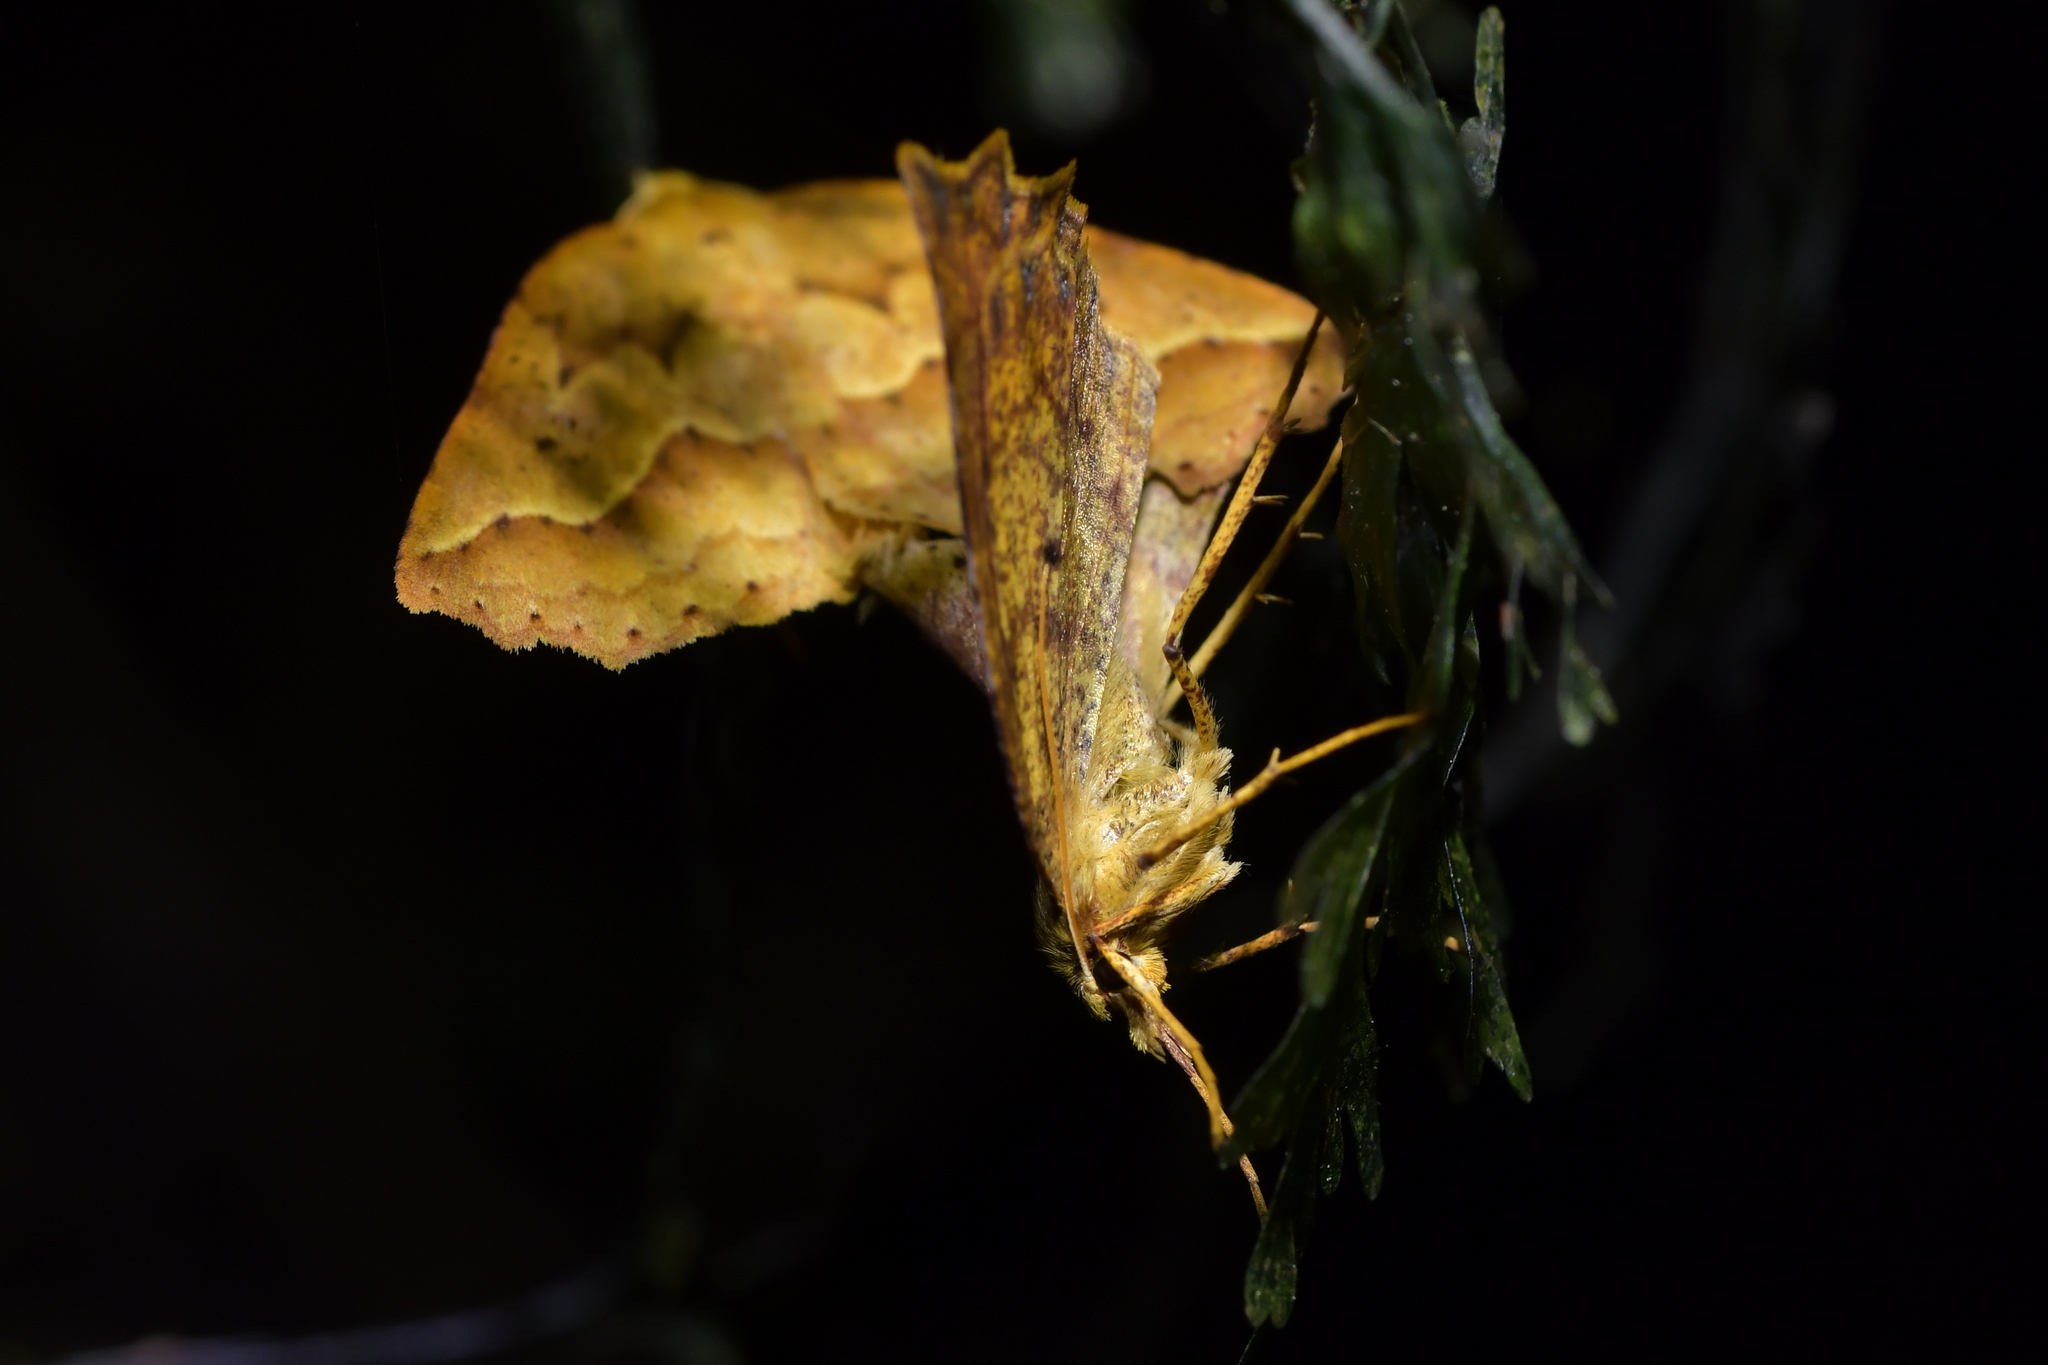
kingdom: Animalia
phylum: Arthropoda
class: Insecta
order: Lepidoptera
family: Geometridae
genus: Ischalis
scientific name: Ischalis variabilis
